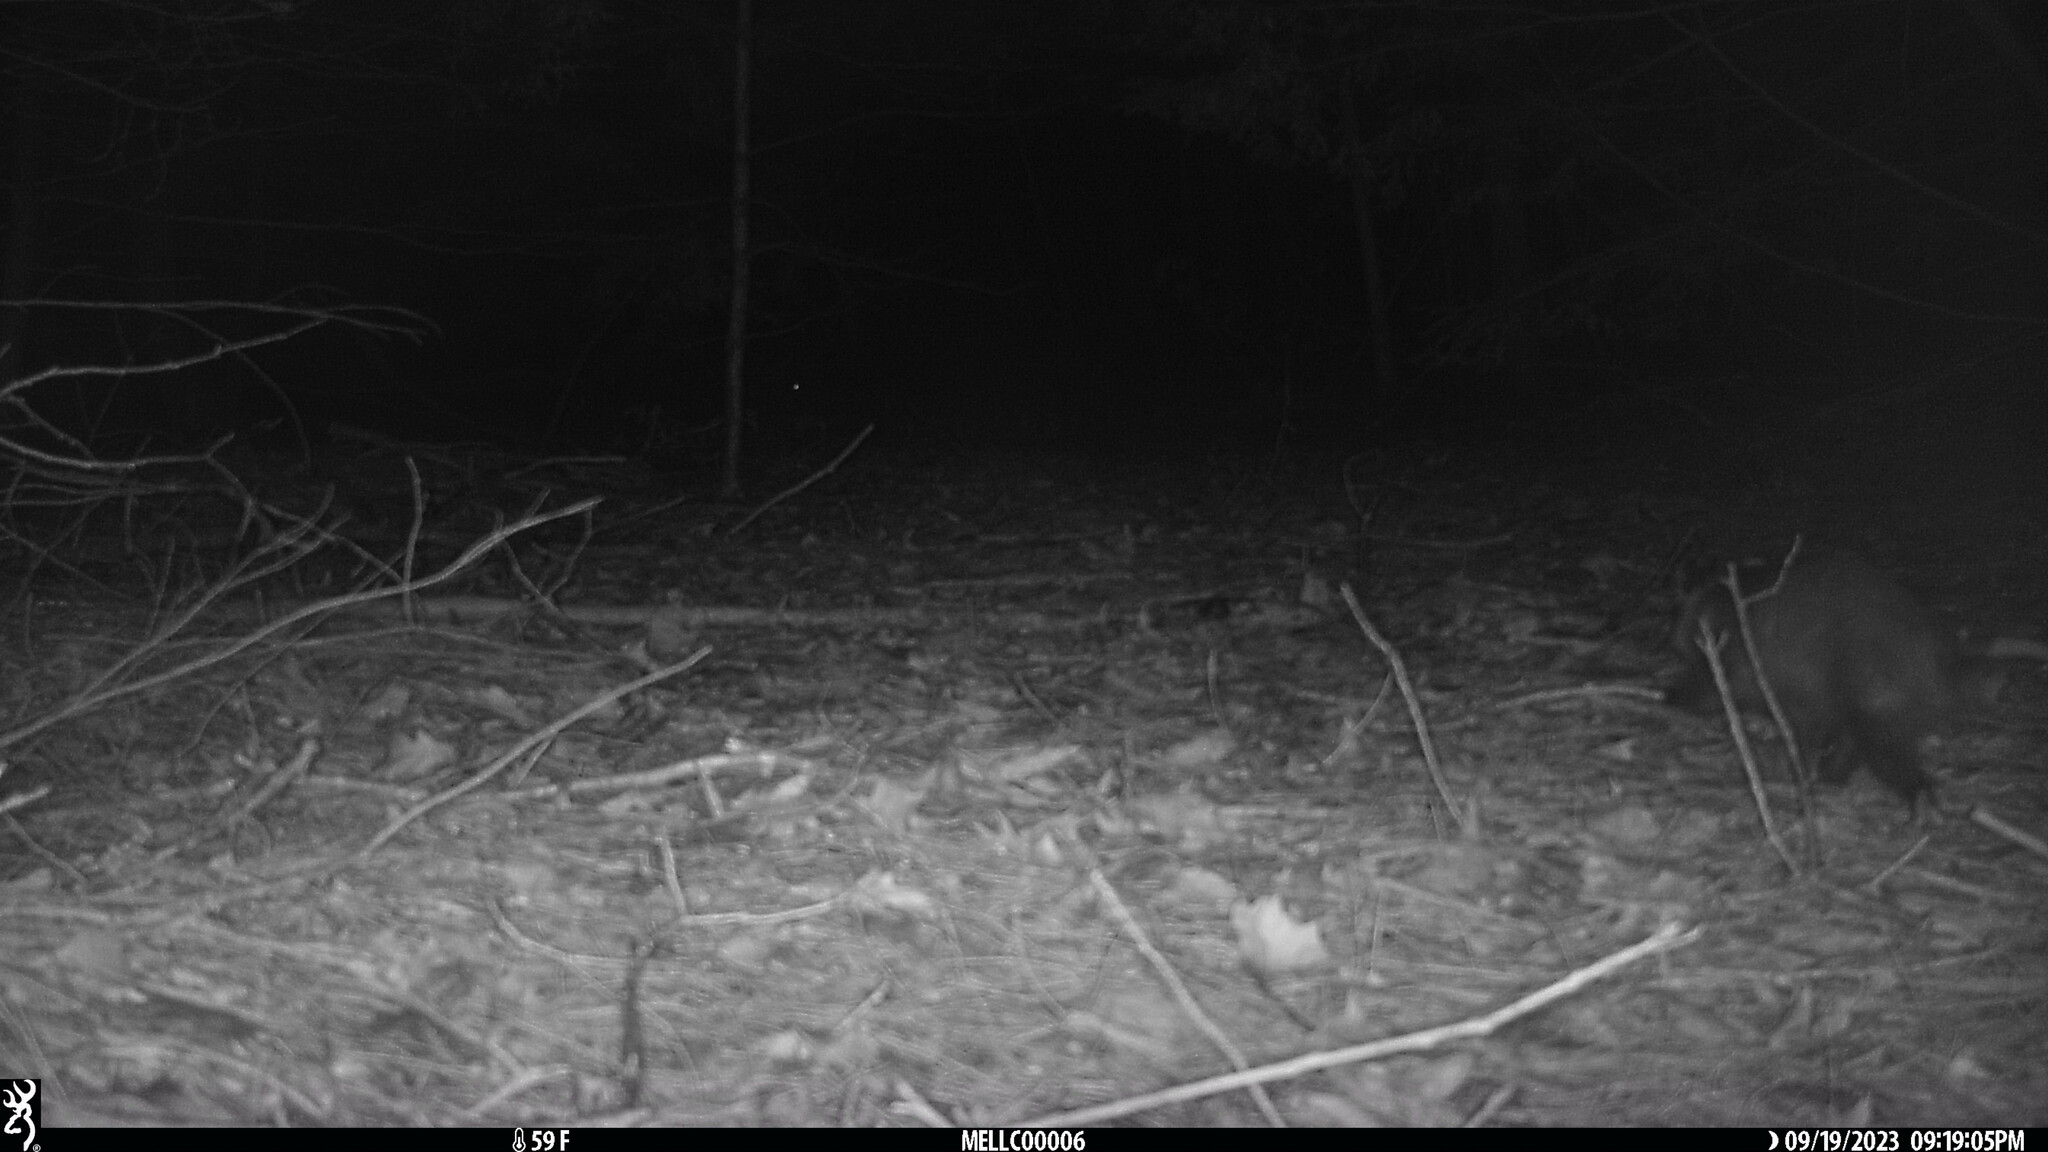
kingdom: Animalia
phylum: Chordata
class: Mammalia
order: Didelphimorphia
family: Didelphidae
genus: Didelphis
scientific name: Didelphis virginiana
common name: Virginia opossum
